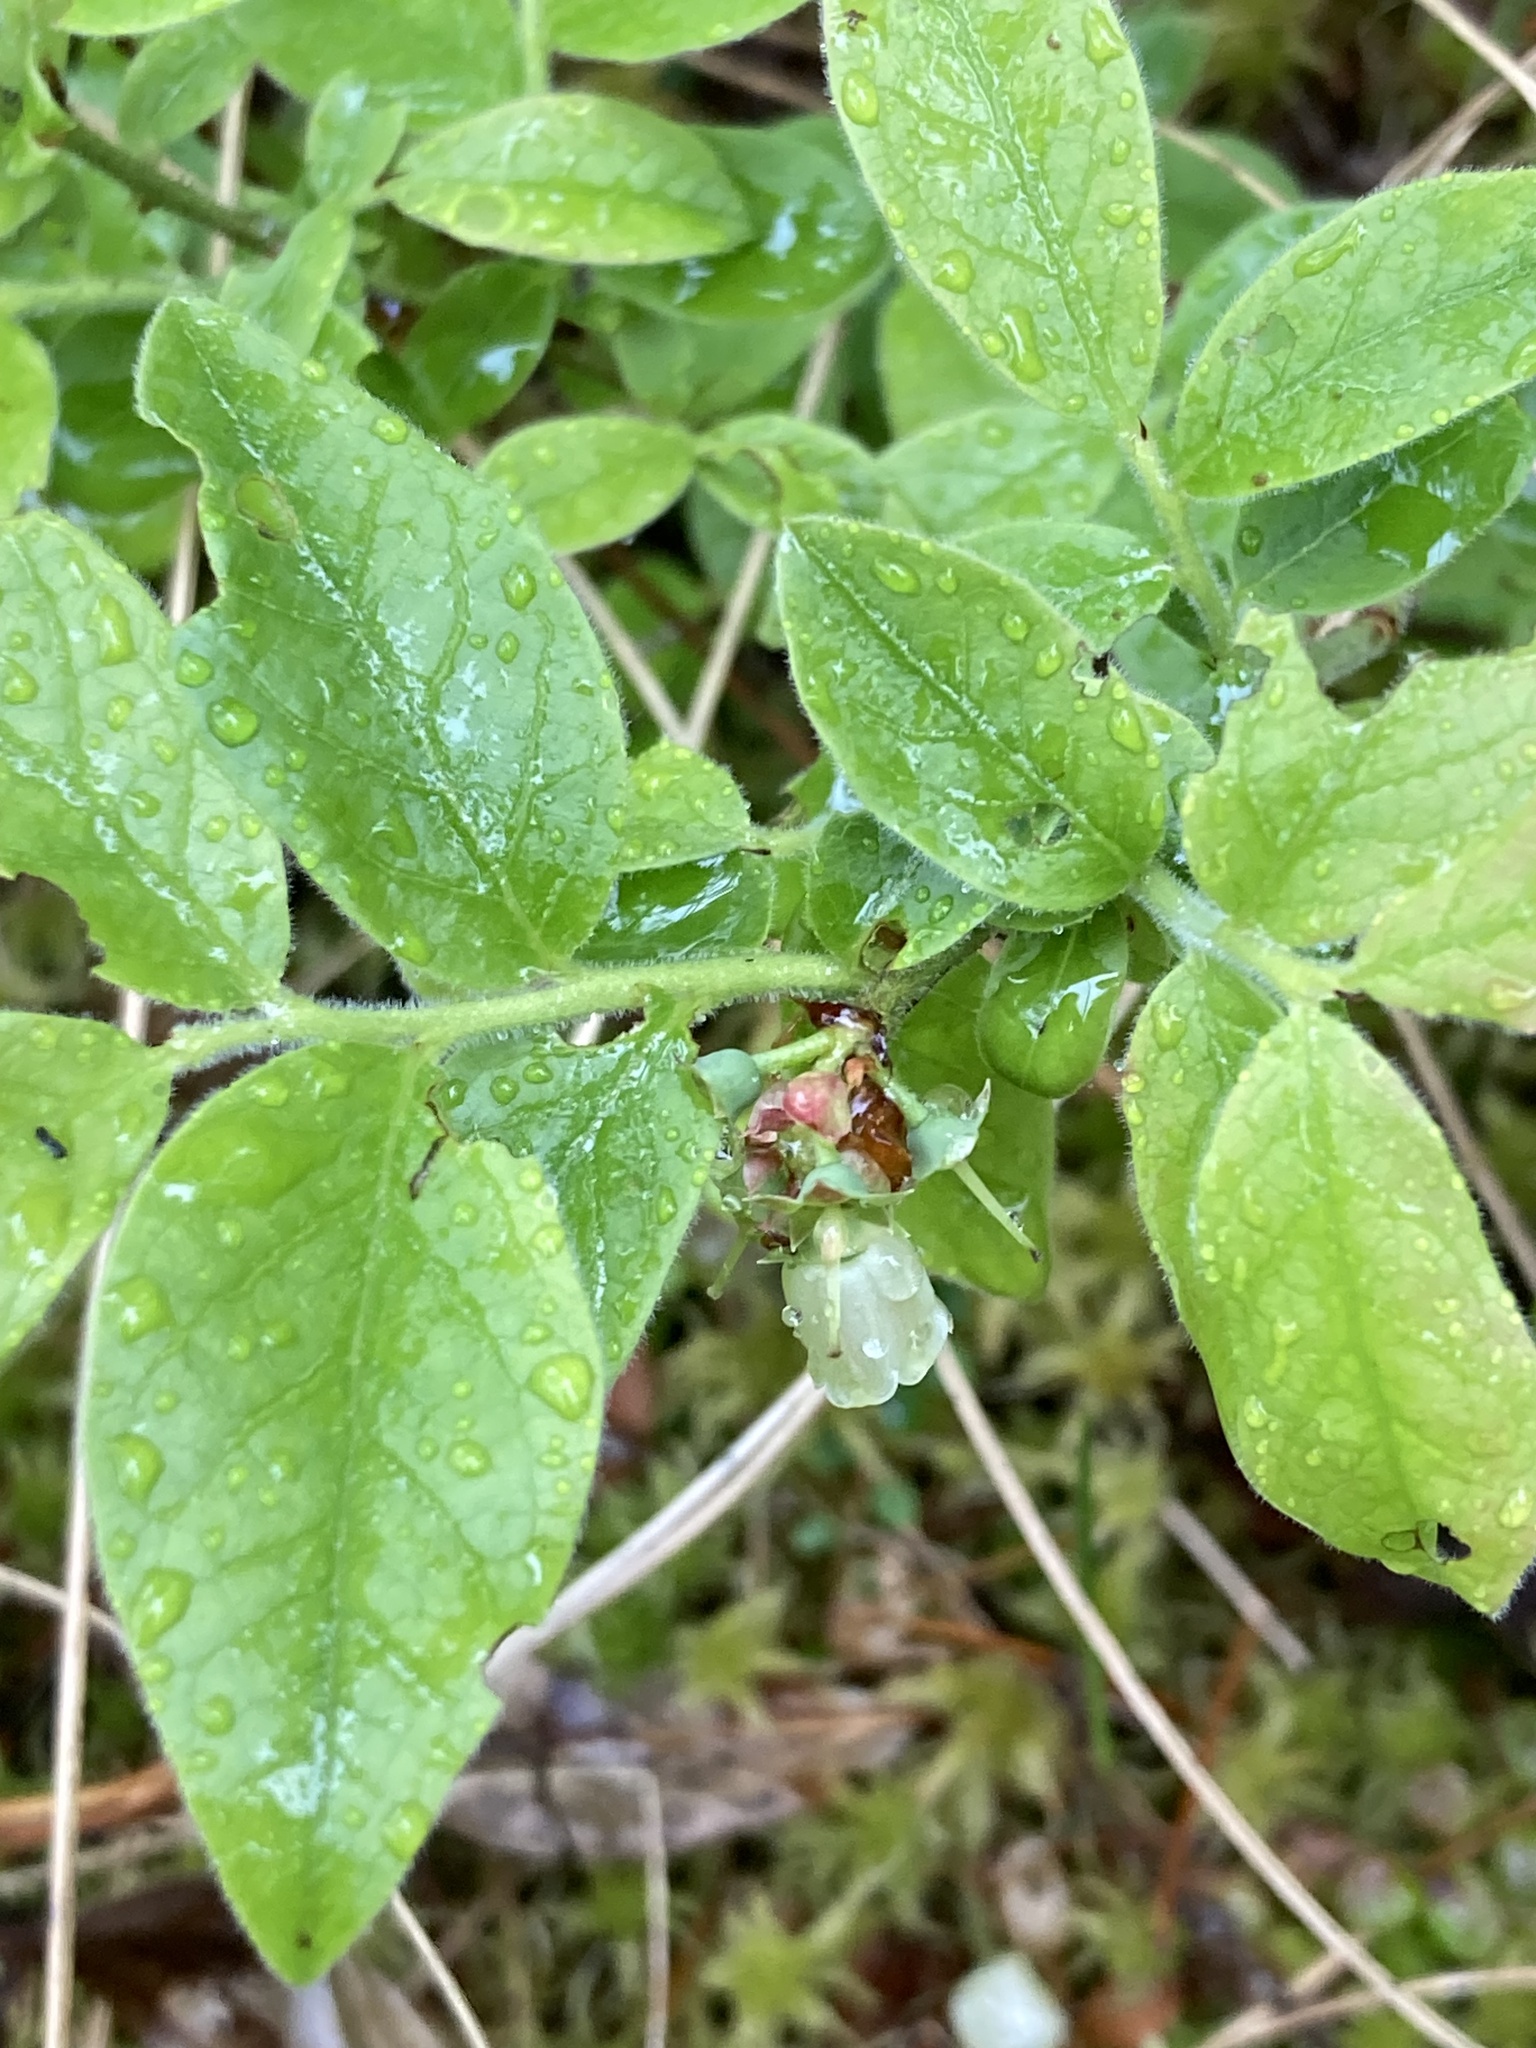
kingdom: Plantae
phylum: Tracheophyta
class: Magnoliopsida
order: Ericales
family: Ericaceae
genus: Vaccinium
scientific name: Vaccinium myrtilloides
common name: Canada blueberry
